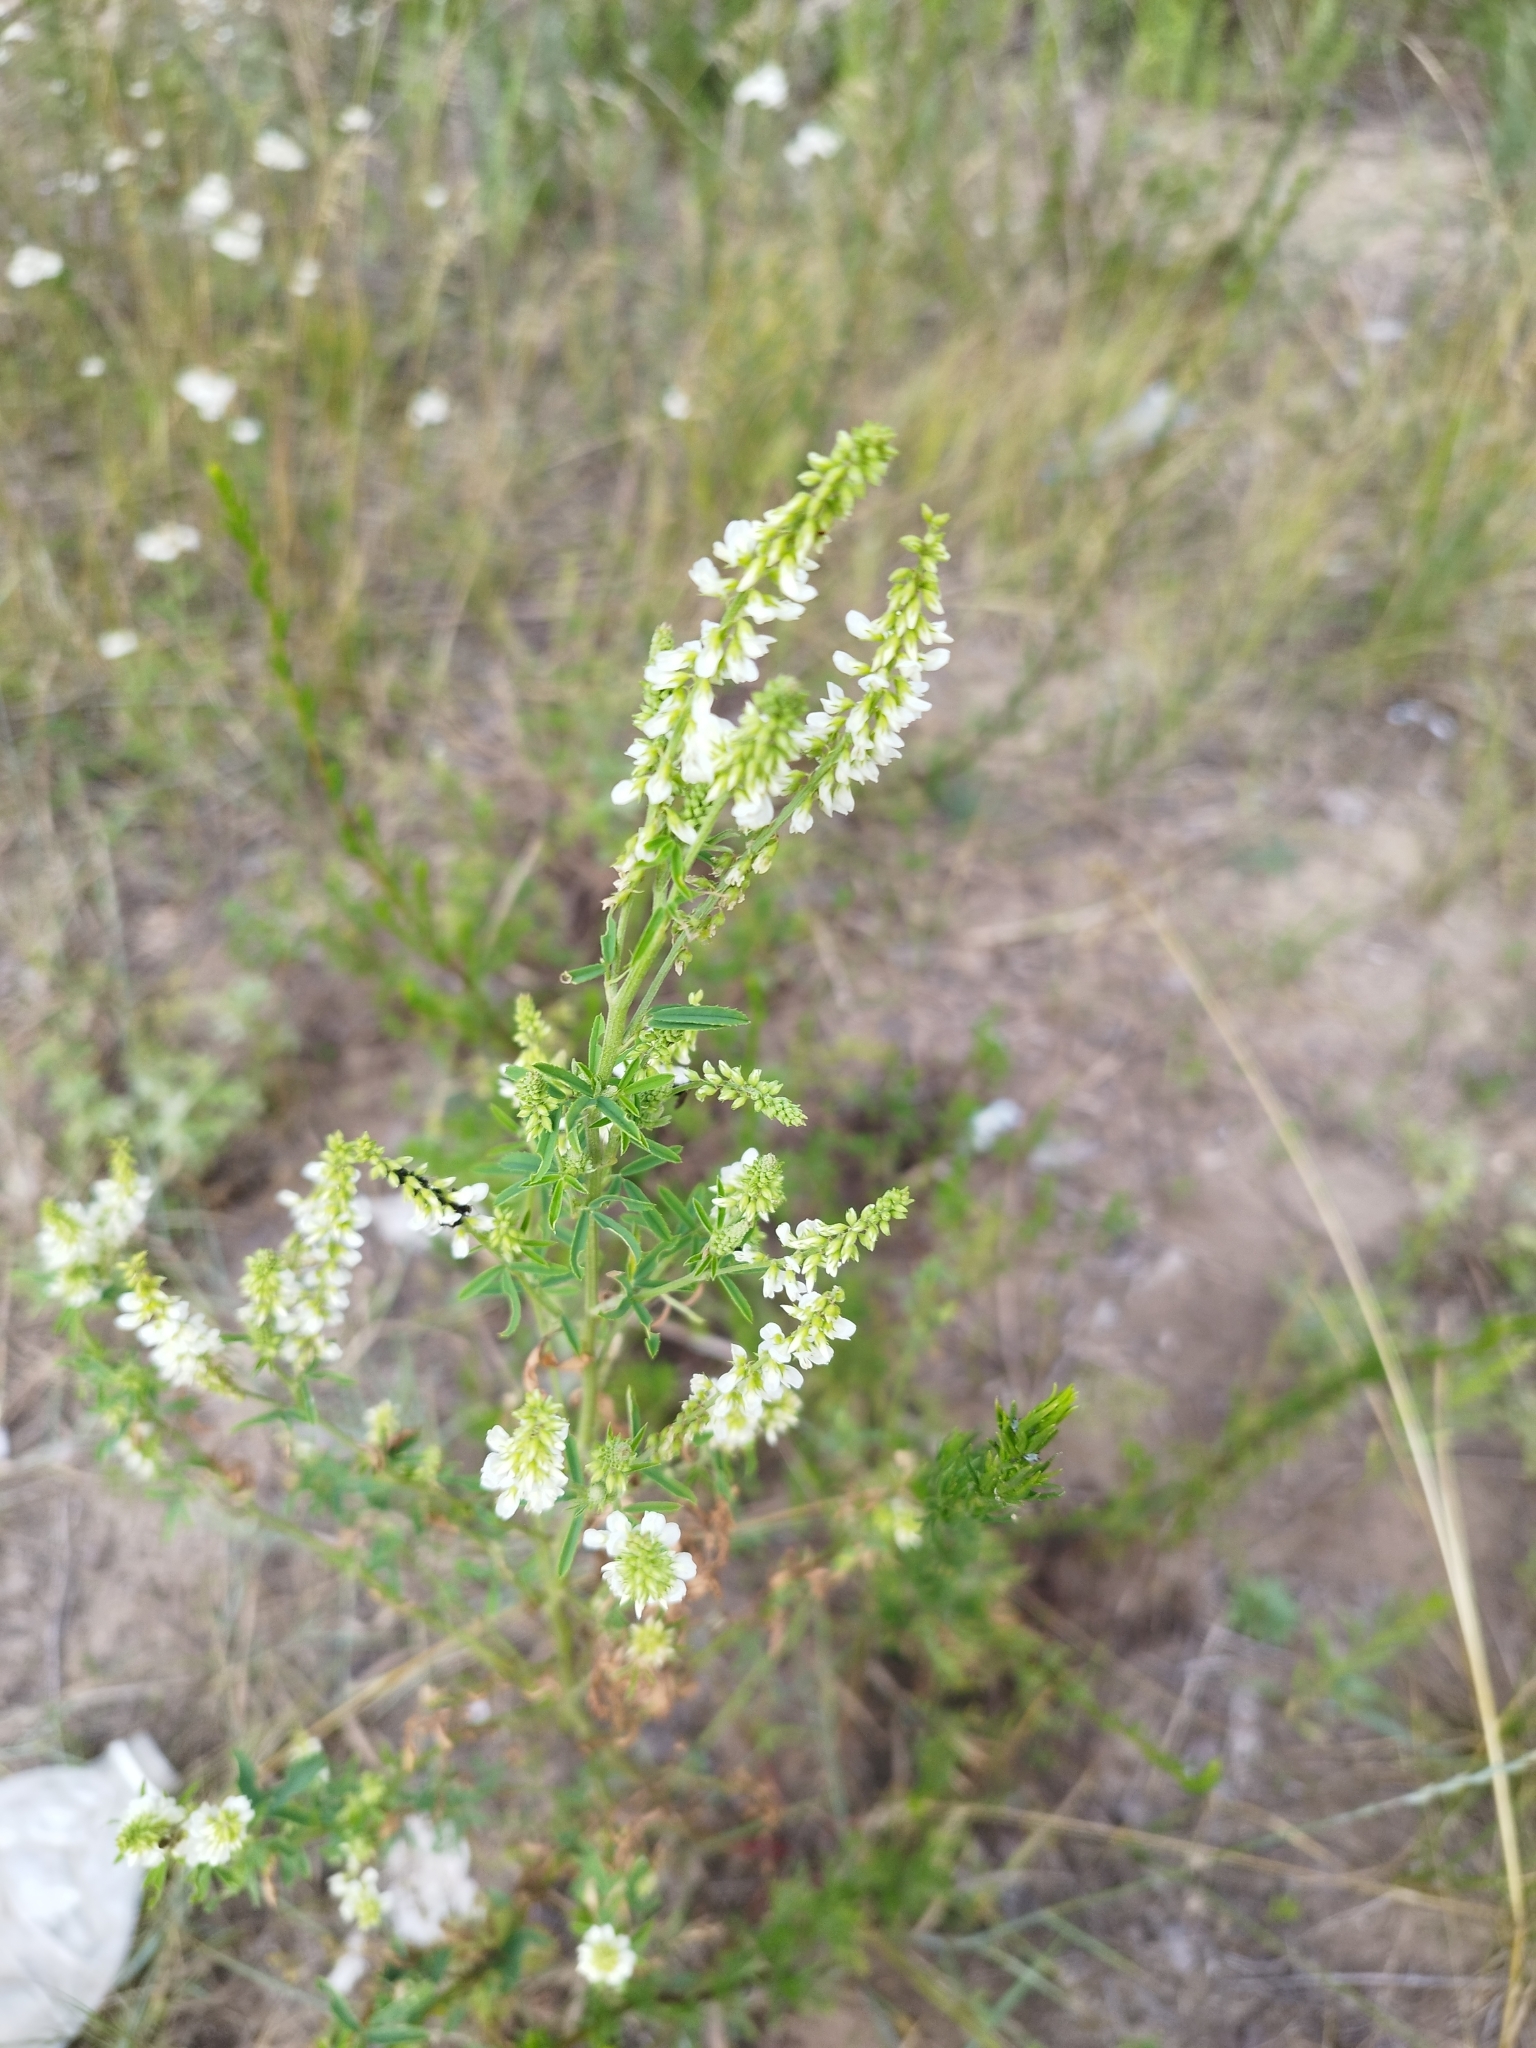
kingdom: Plantae
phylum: Tracheophyta
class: Magnoliopsida
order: Fabales
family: Fabaceae
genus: Melilotus
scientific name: Melilotus albus
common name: White melilot
